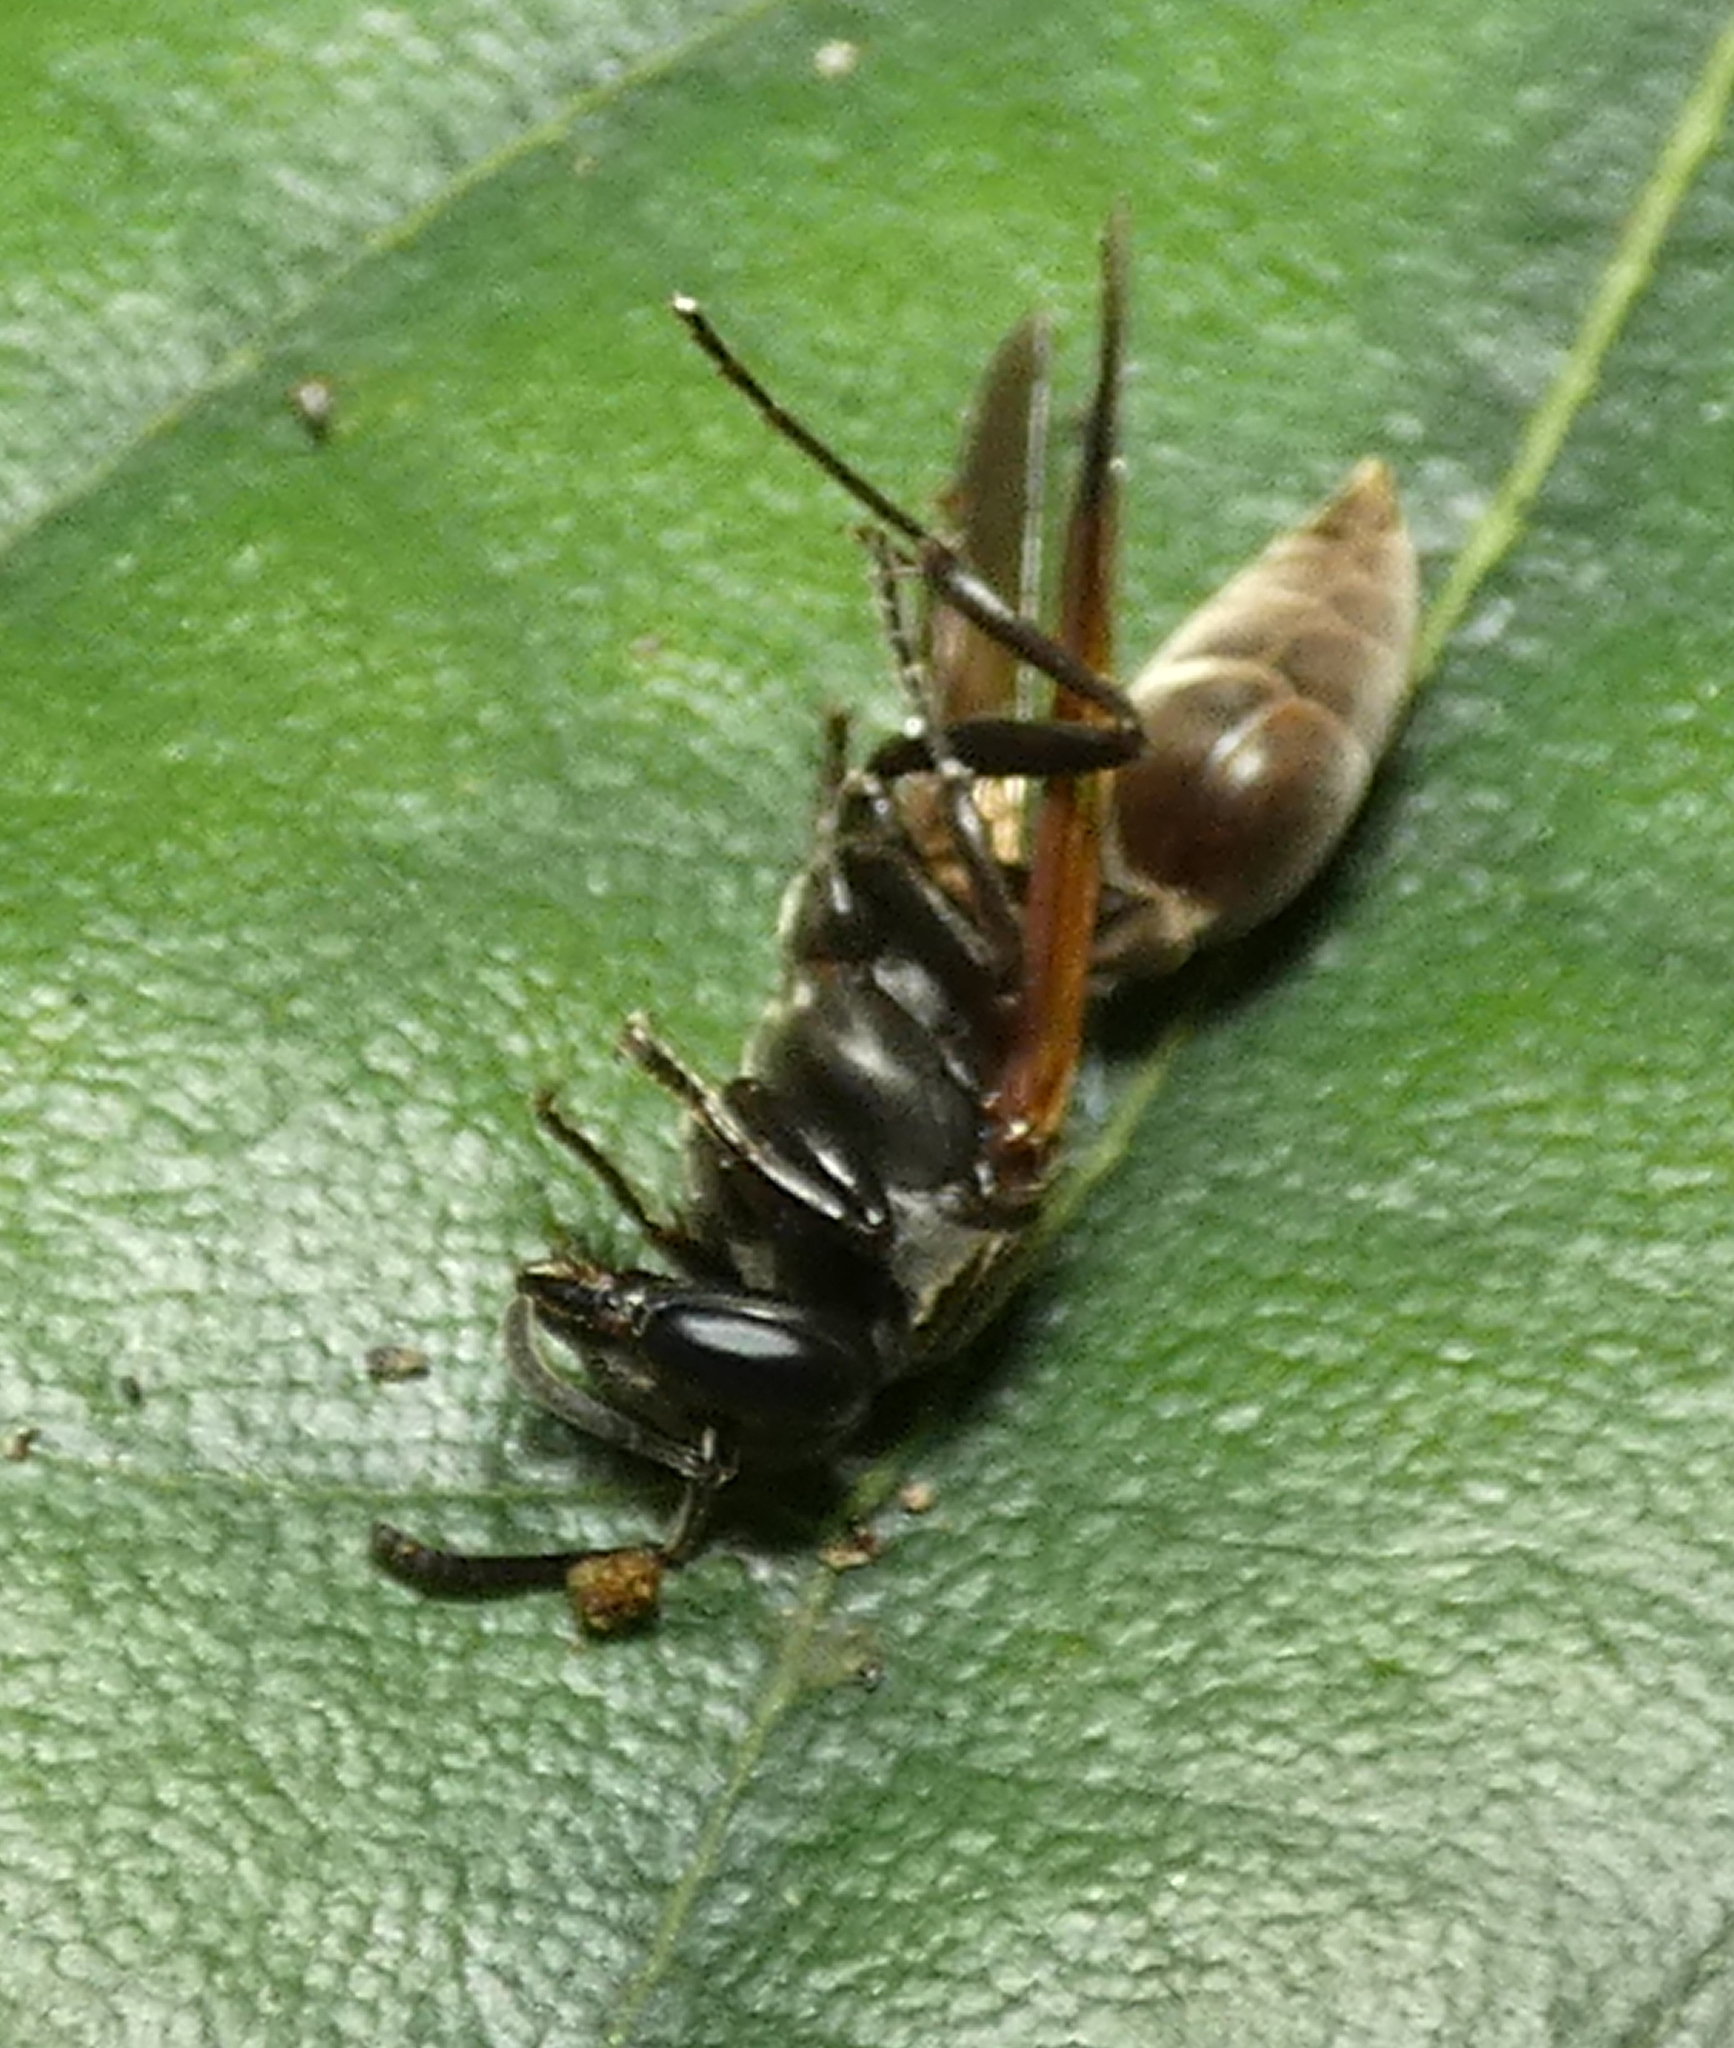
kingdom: Animalia
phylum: Arthropoda
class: Insecta
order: Hymenoptera
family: Eumenidae
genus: Polybia
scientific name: Polybia rejecta
